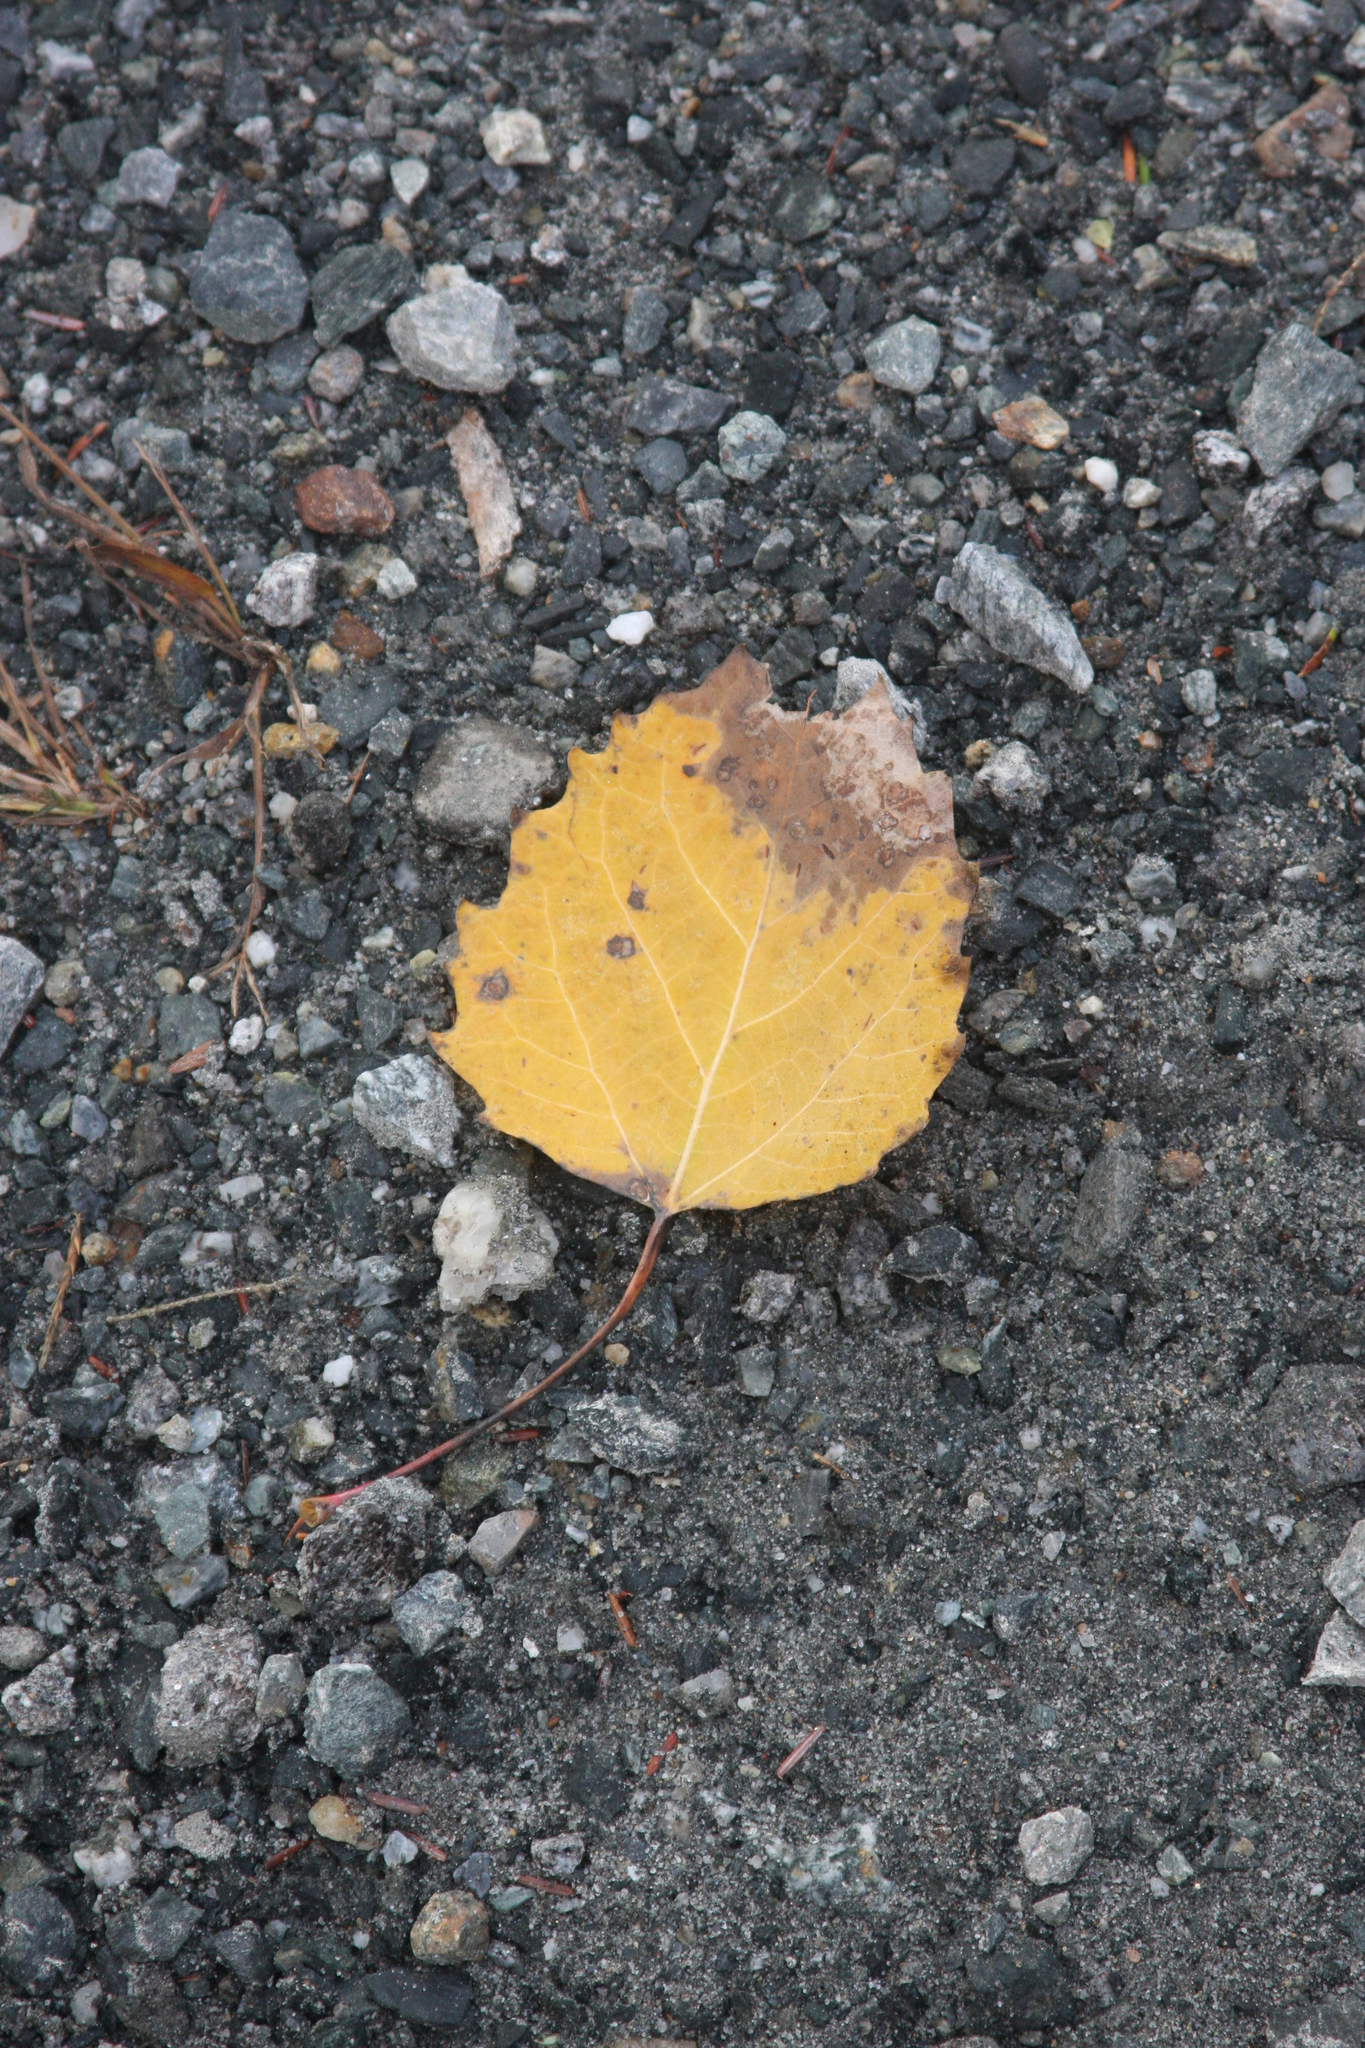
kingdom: Plantae
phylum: Tracheophyta
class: Magnoliopsida
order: Malpighiales
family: Salicaceae
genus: Populus
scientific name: Populus grandidentata
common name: Bigtooth aspen
